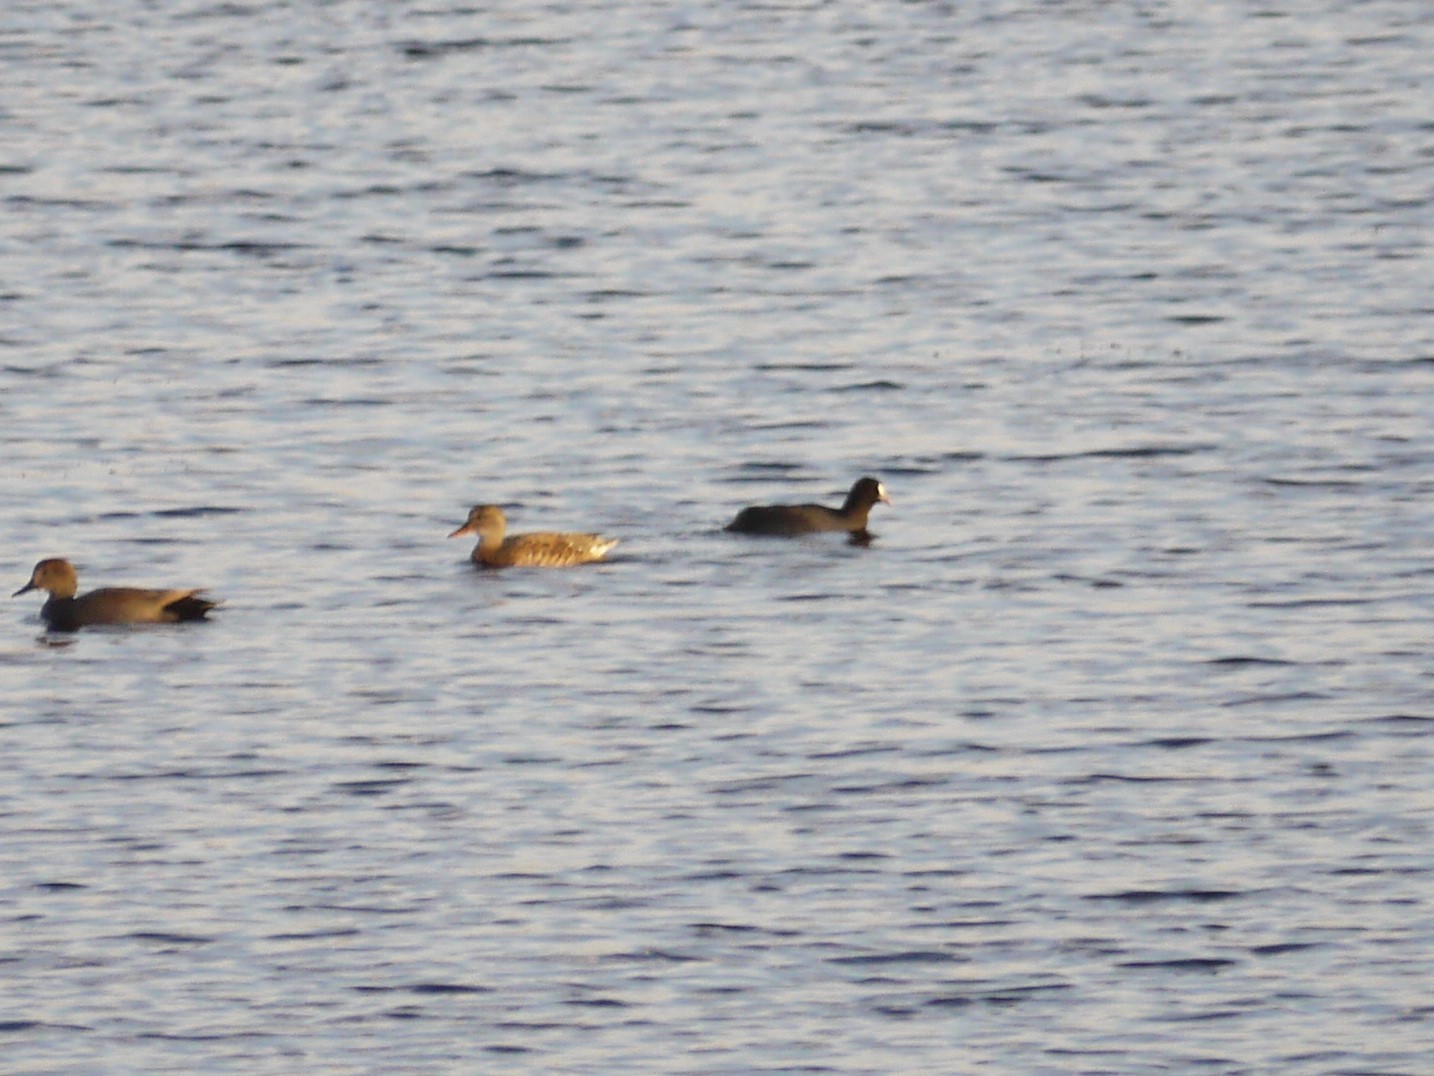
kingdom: Animalia
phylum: Chordata
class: Aves
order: Gruiformes
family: Rallidae
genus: Fulica
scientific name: Fulica atra
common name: Eurasian coot
